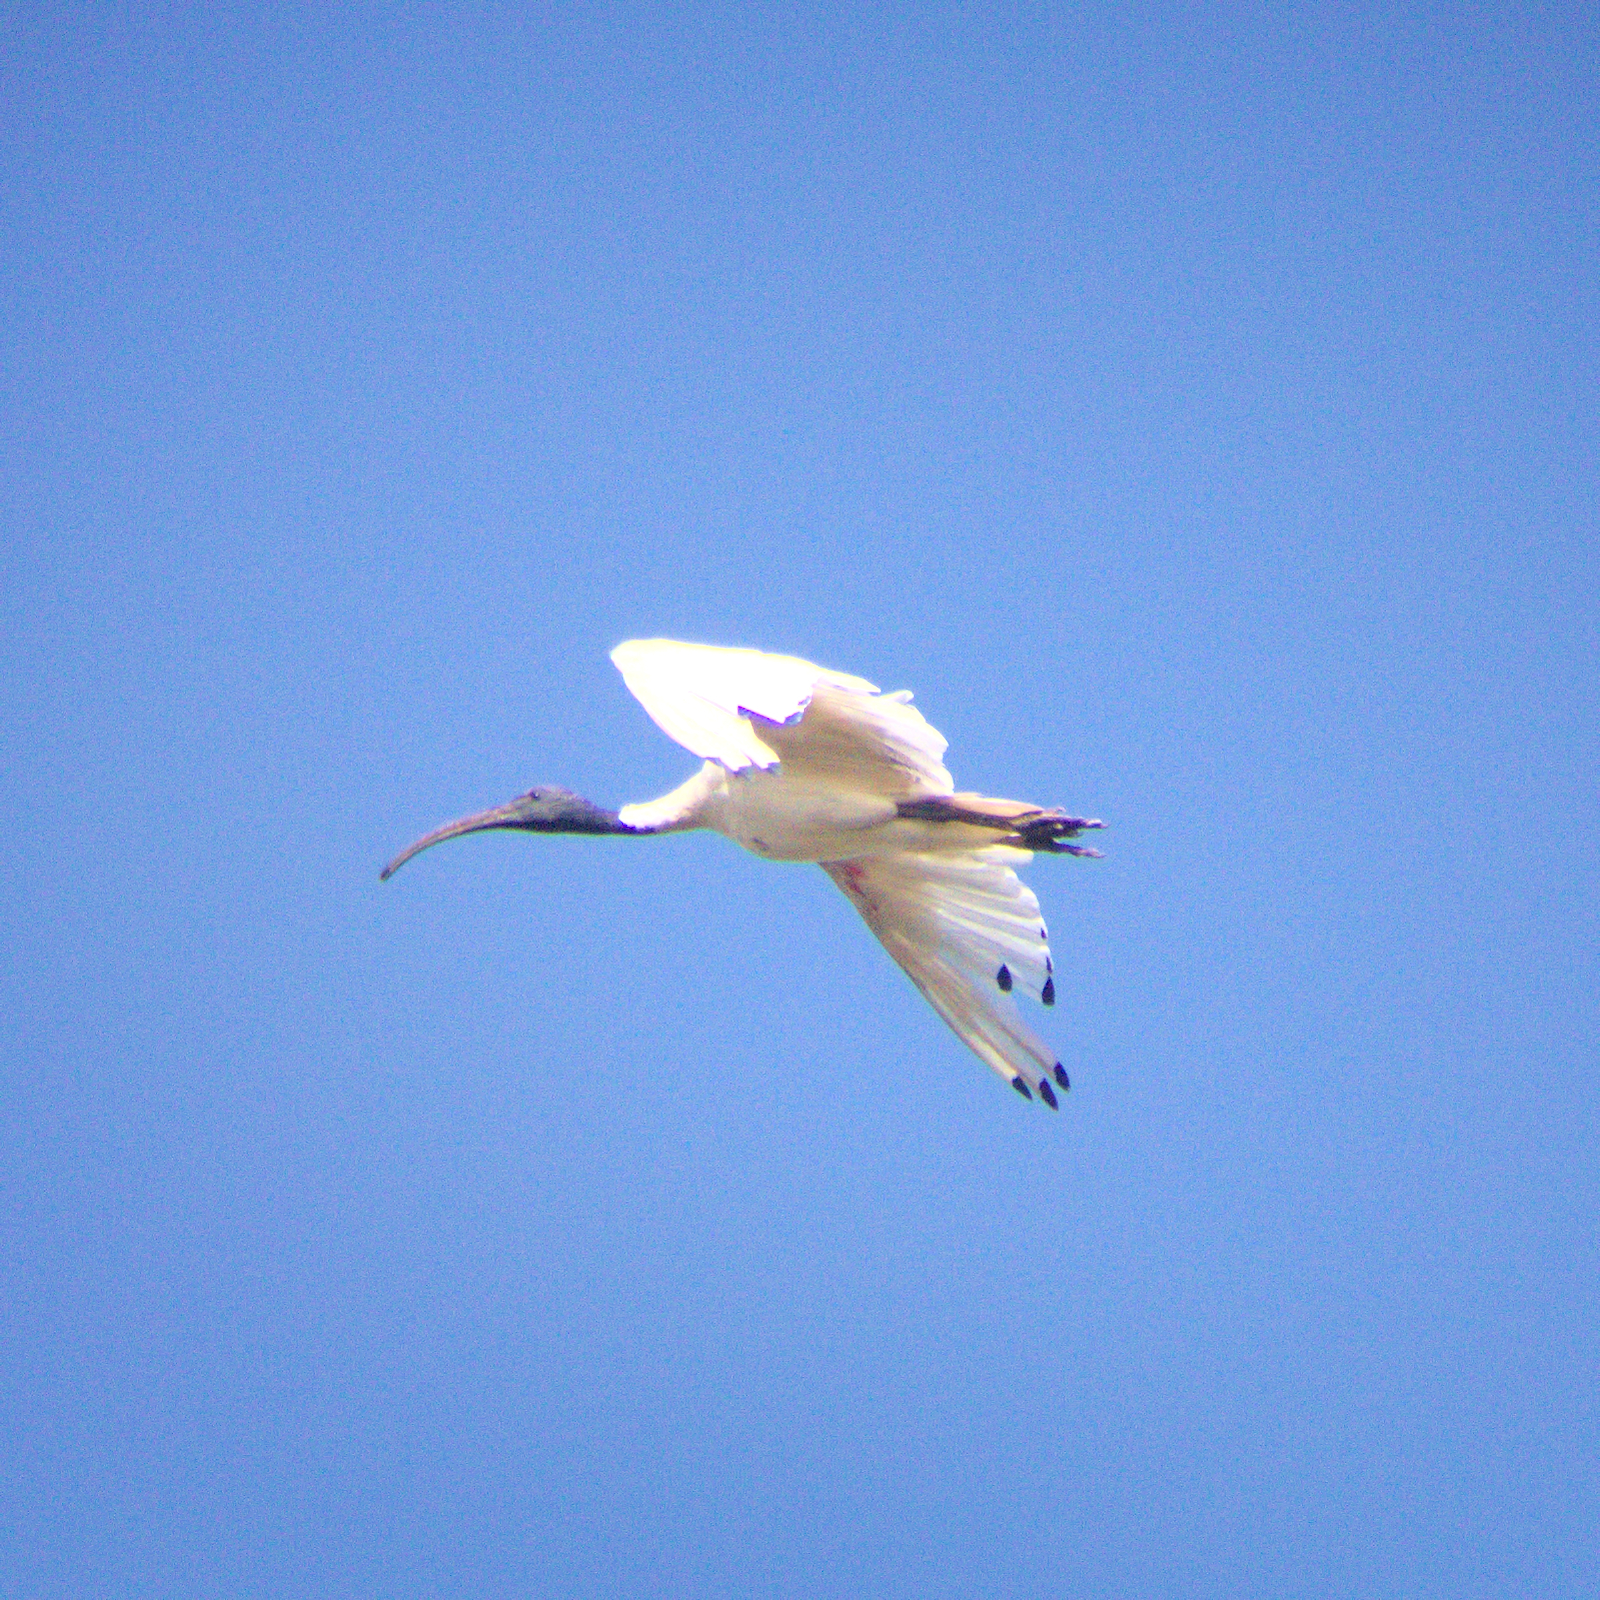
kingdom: Animalia
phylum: Chordata
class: Aves
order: Pelecaniformes
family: Threskiornithidae
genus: Threskiornis
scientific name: Threskiornis molucca
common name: Australian white ibis
